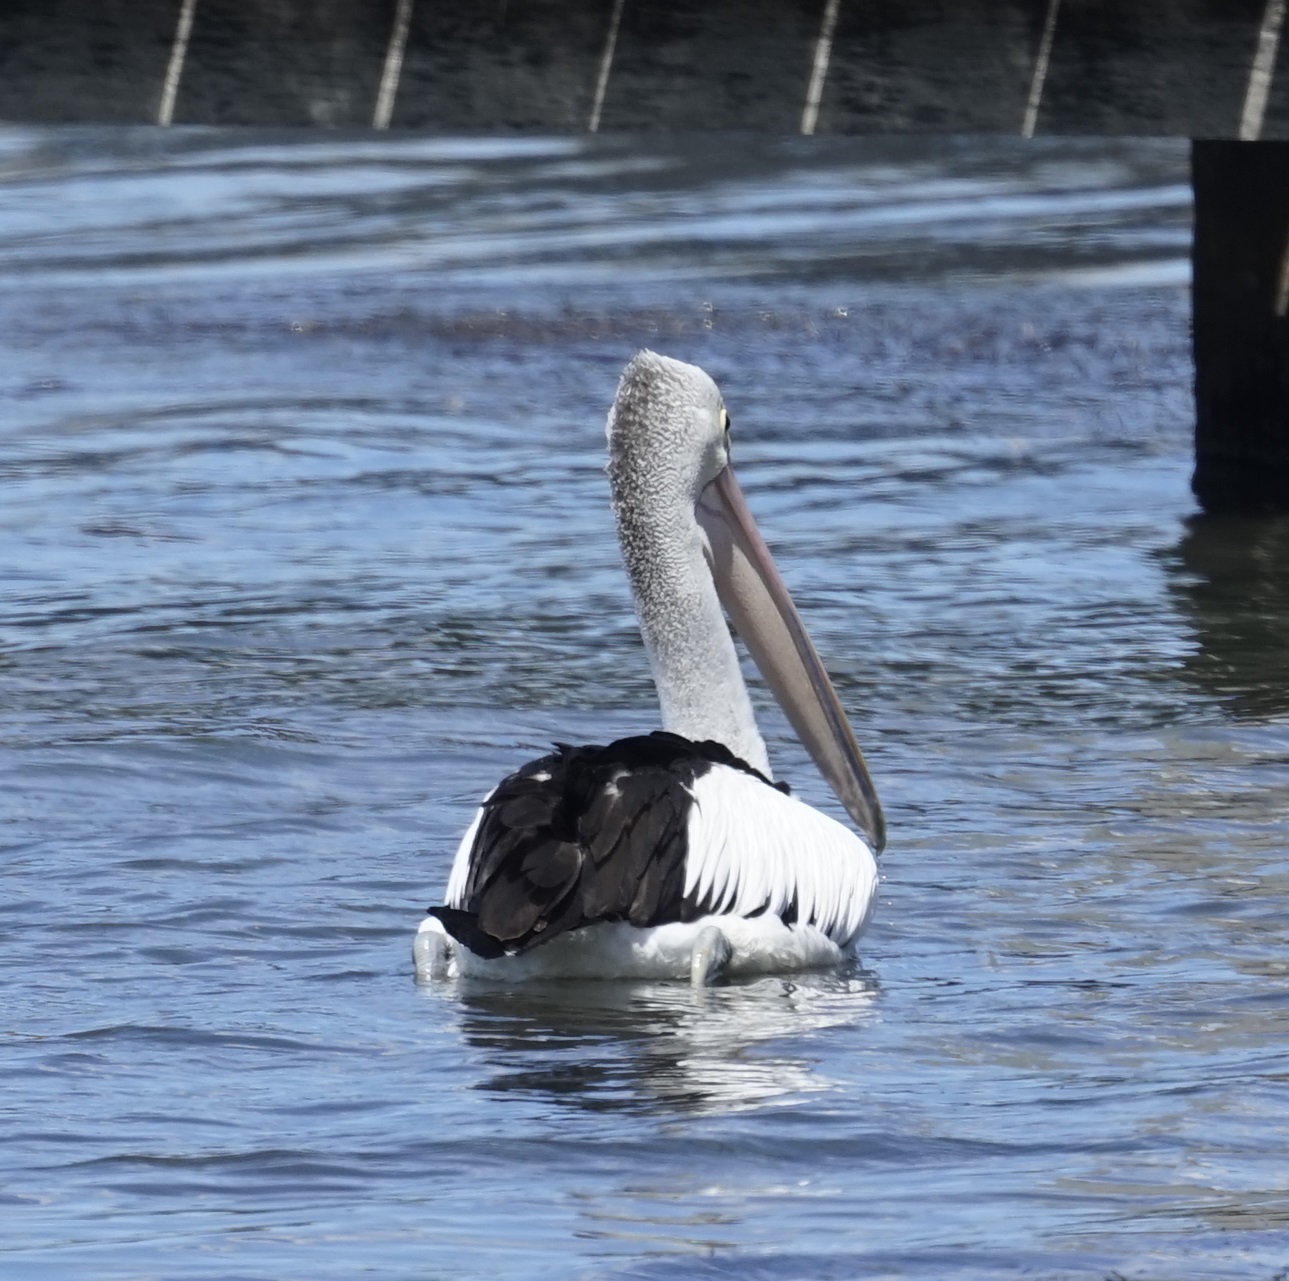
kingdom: Animalia
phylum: Chordata
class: Aves
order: Pelecaniformes
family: Pelecanidae
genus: Pelecanus
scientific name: Pelecanus conspicillatus
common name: Australian pelican
